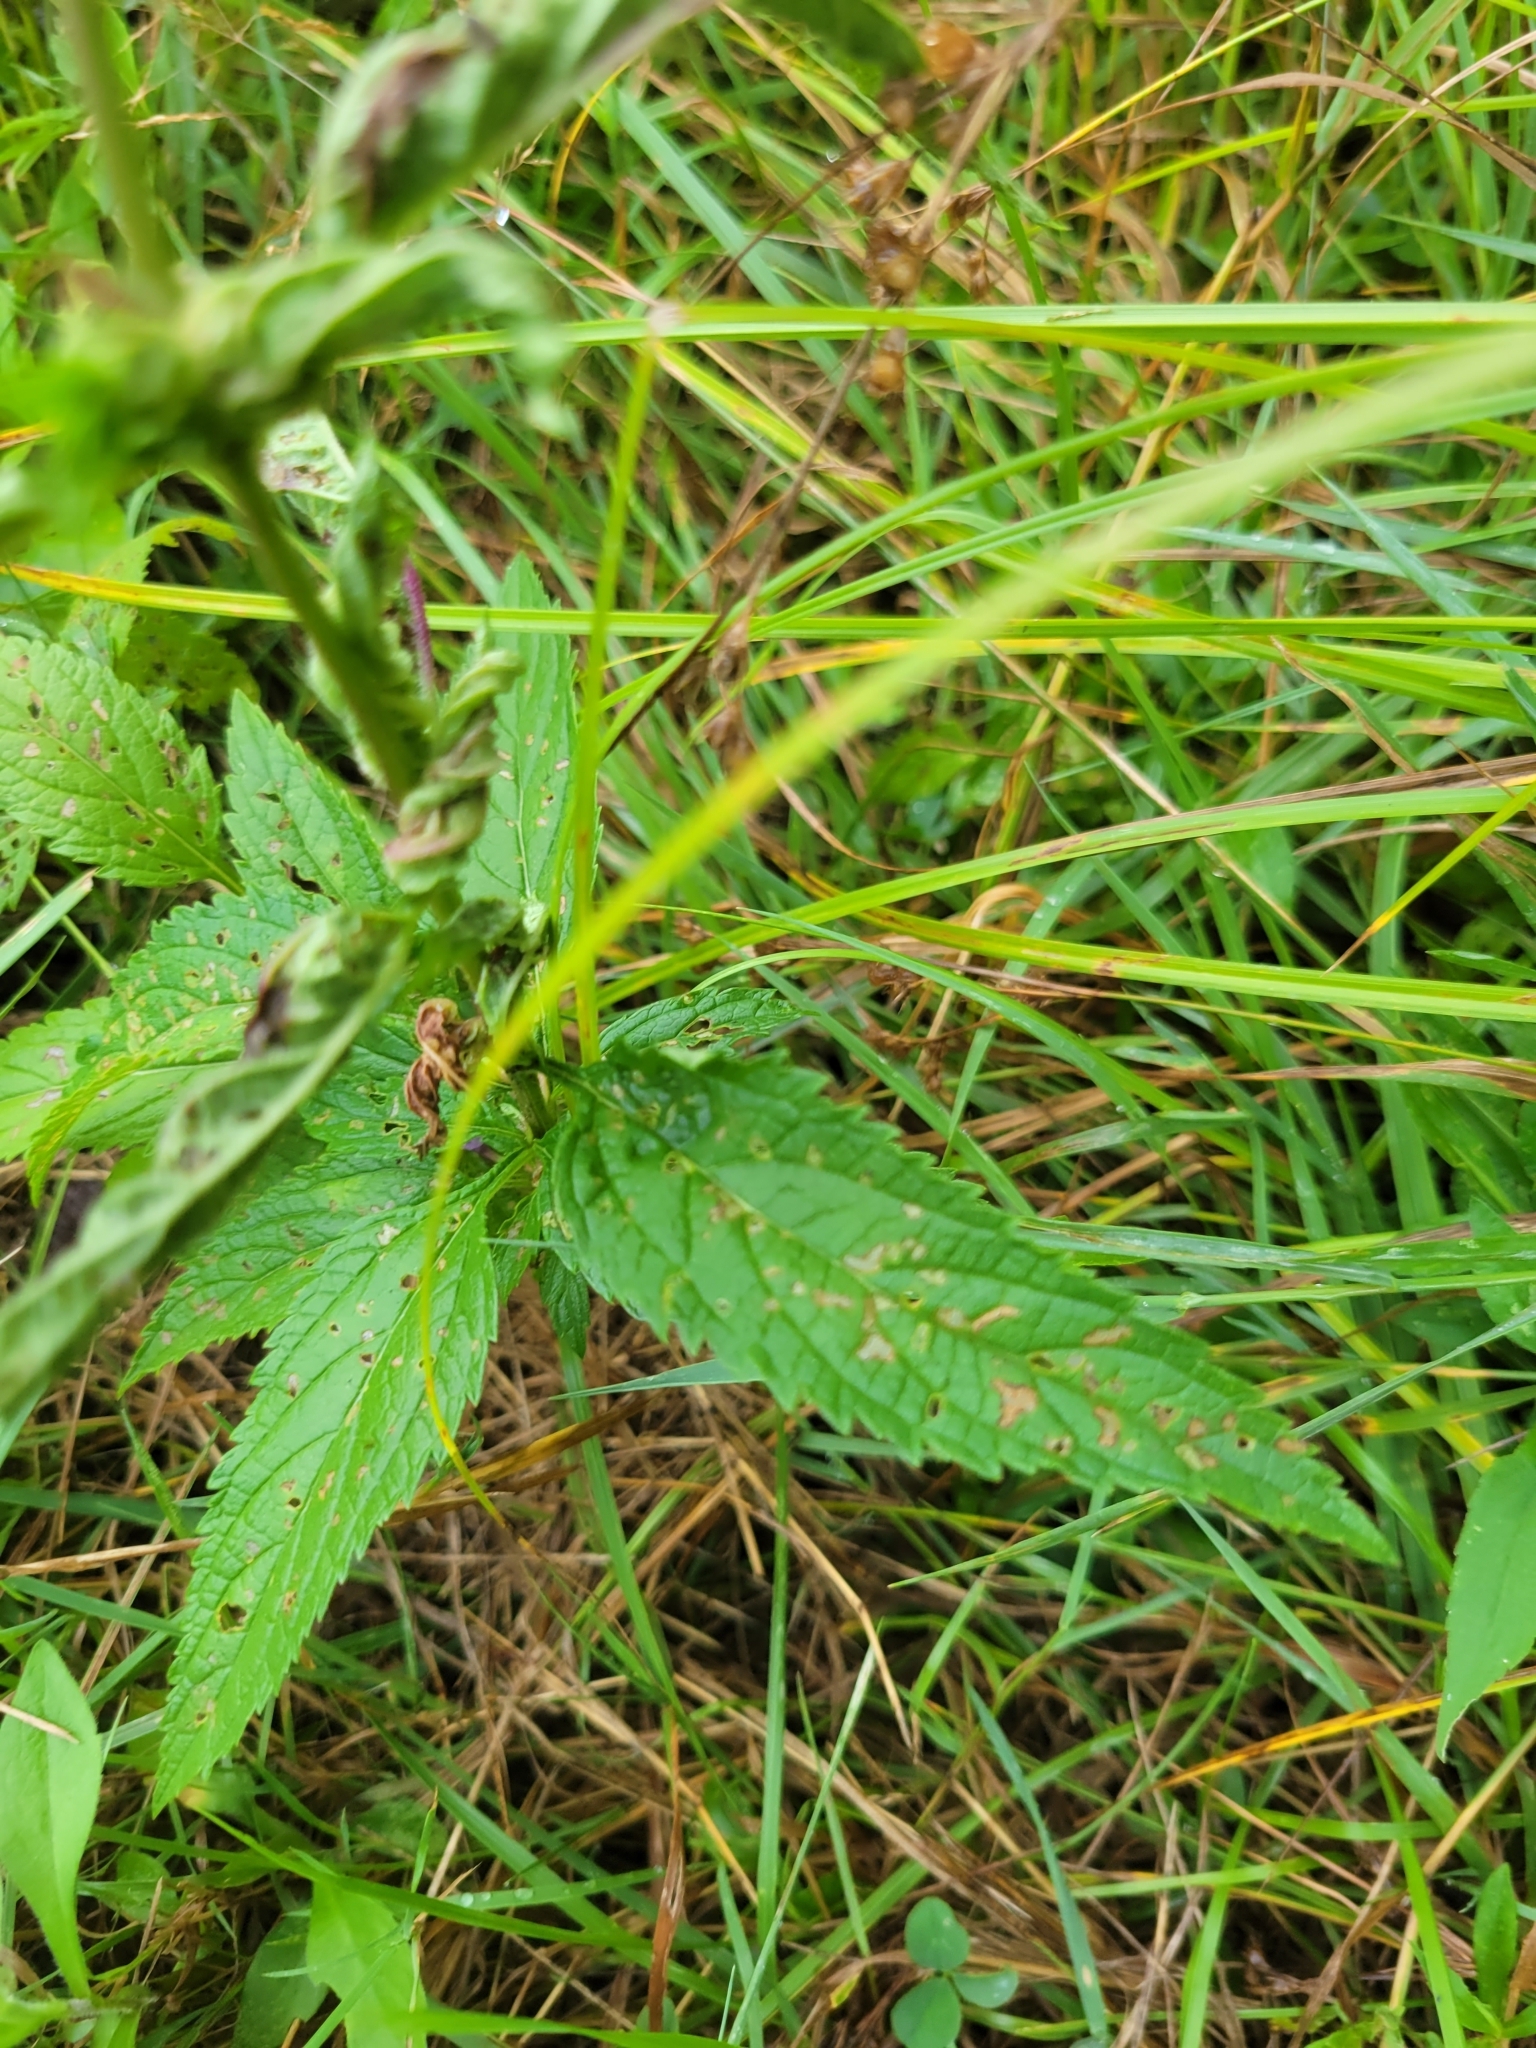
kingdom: Plantae
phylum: Tracheophyta
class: Magnoliopsida
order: Lamiales
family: Verbenaceae
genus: Verbena
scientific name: Verbena hastata
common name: American blue vervain
